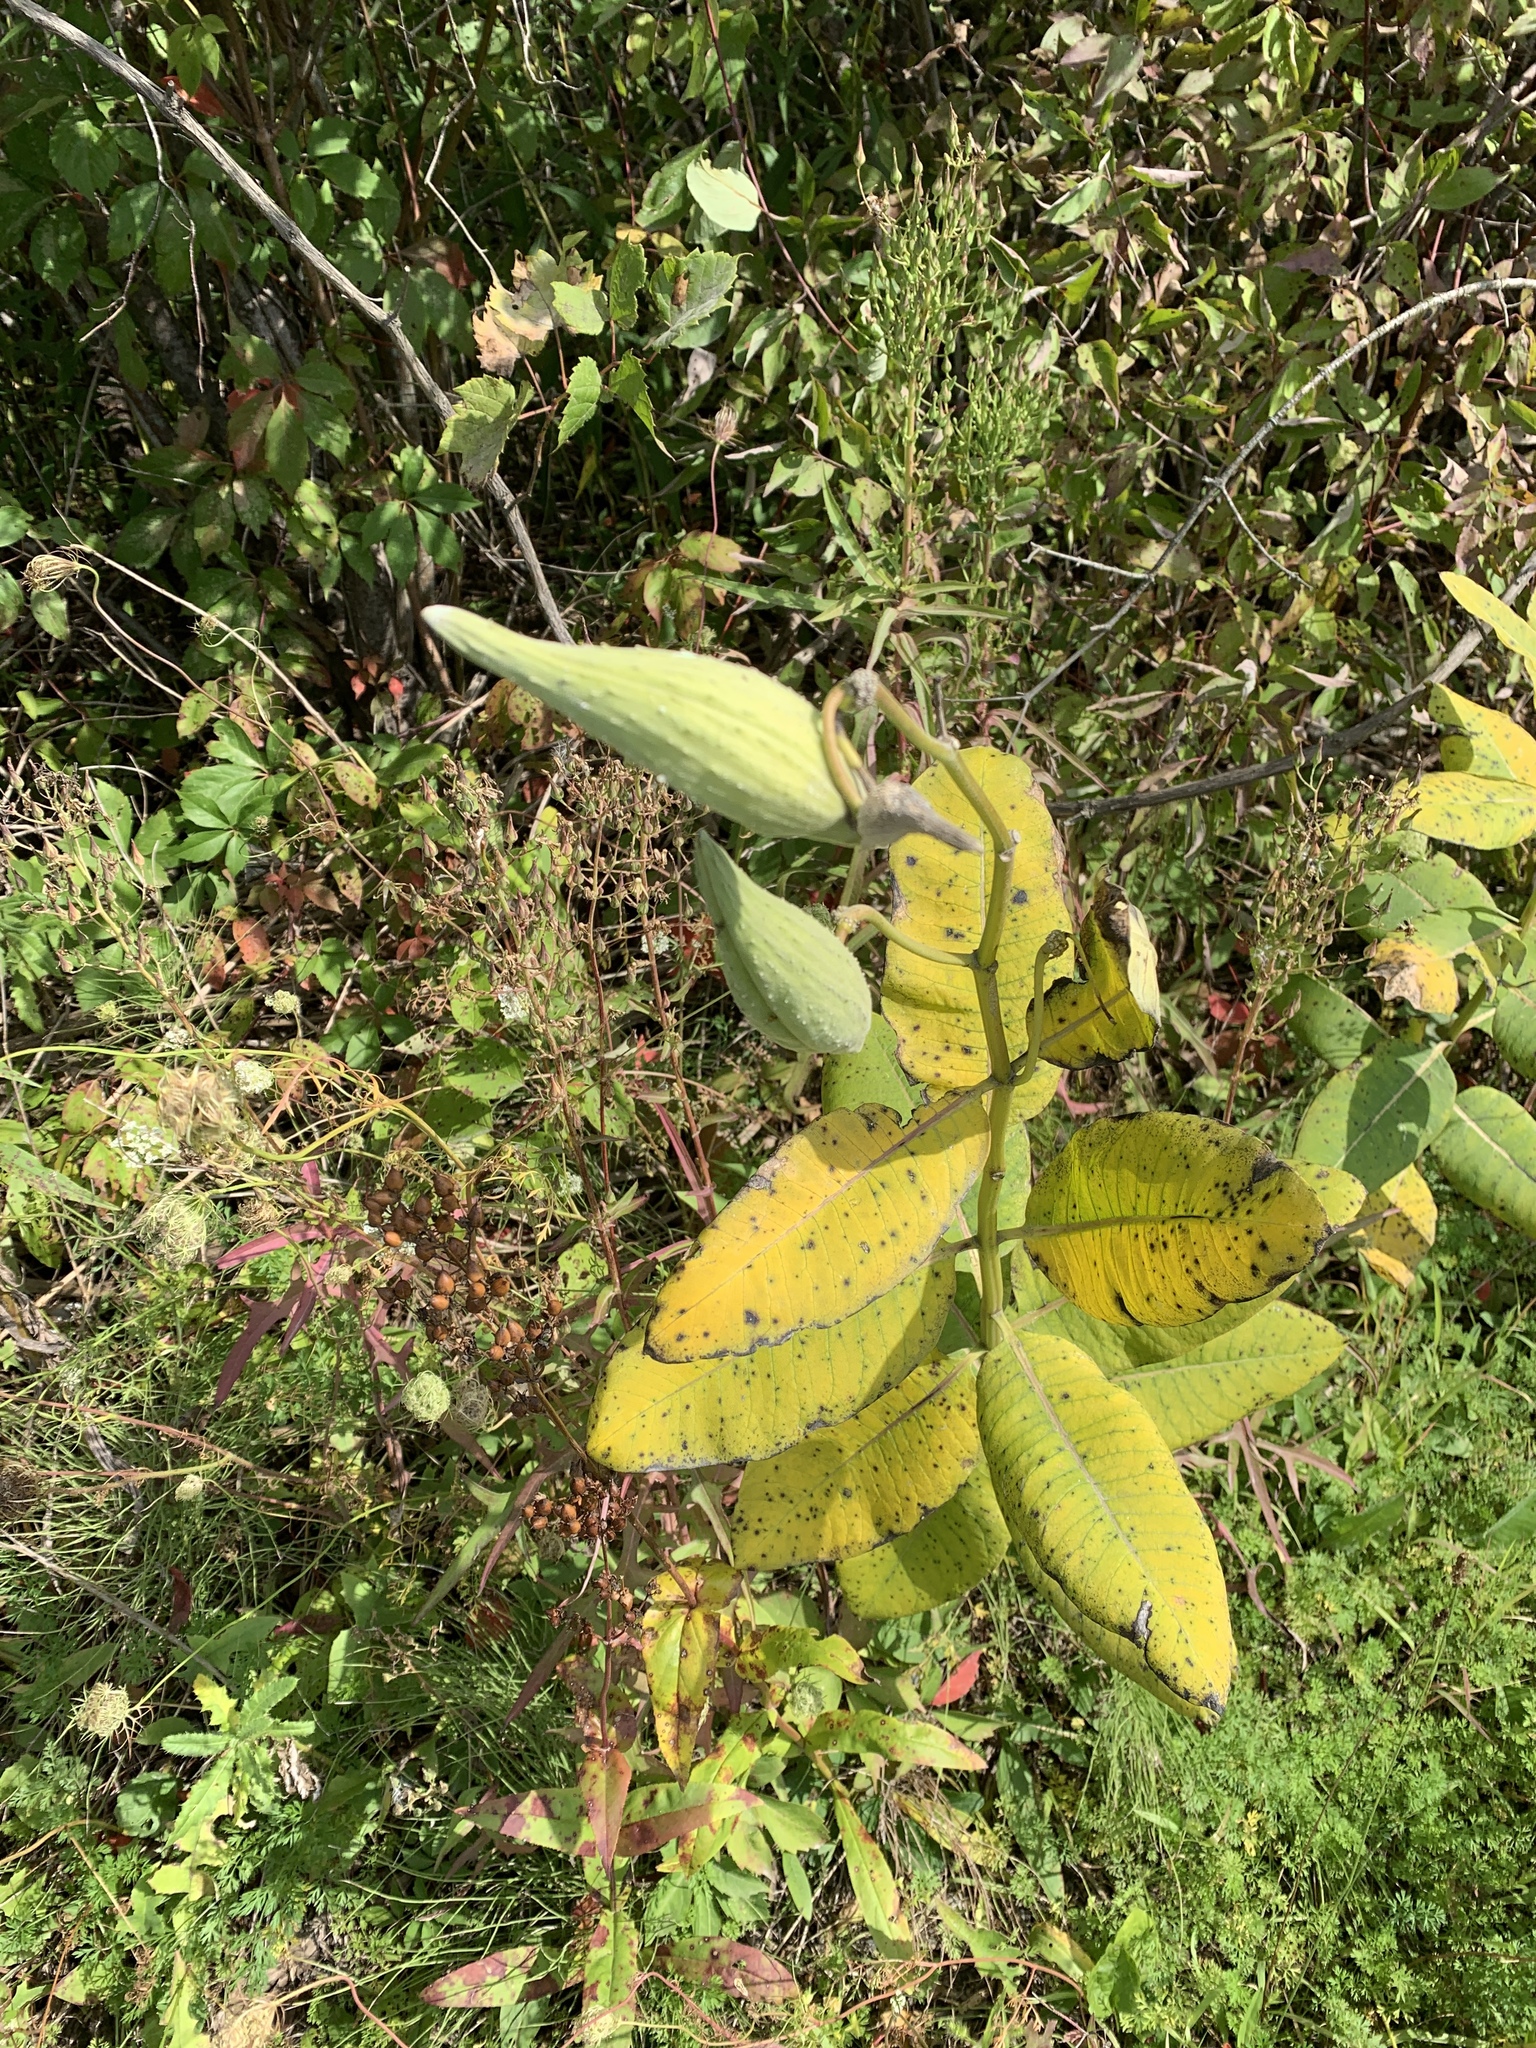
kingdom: Plantae
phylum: Tracheophyta
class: Magnoliopsida
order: Gentianales
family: Apocynaceae
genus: Asclepias
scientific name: Asclepias syriaca
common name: Common milkweed
